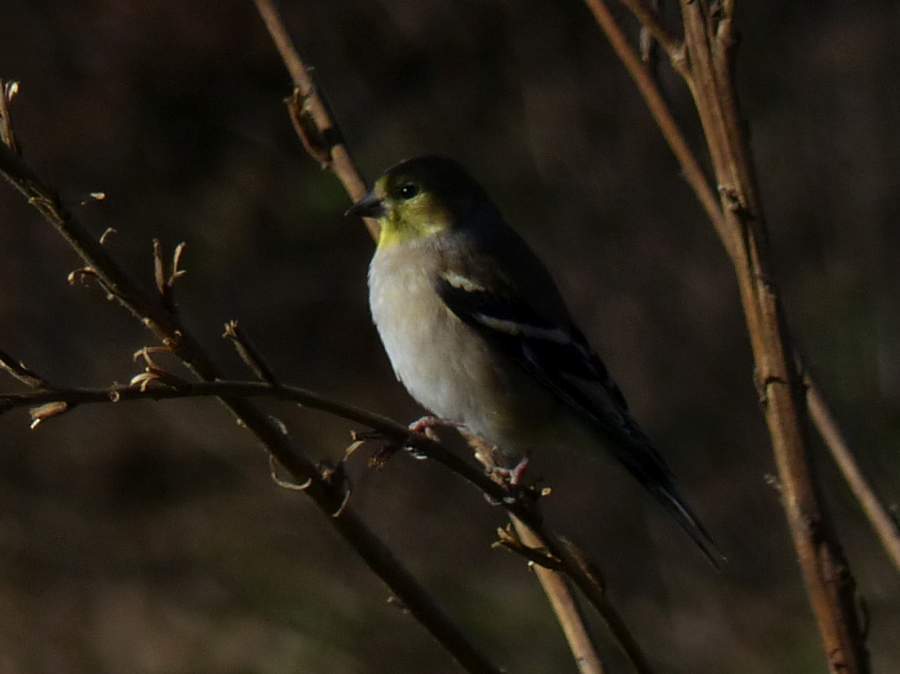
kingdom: Animalia
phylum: Chordata
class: Aves
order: Passeriformes
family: Fringillidae
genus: Spinus
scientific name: Spinus tristis
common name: American goldfinch
